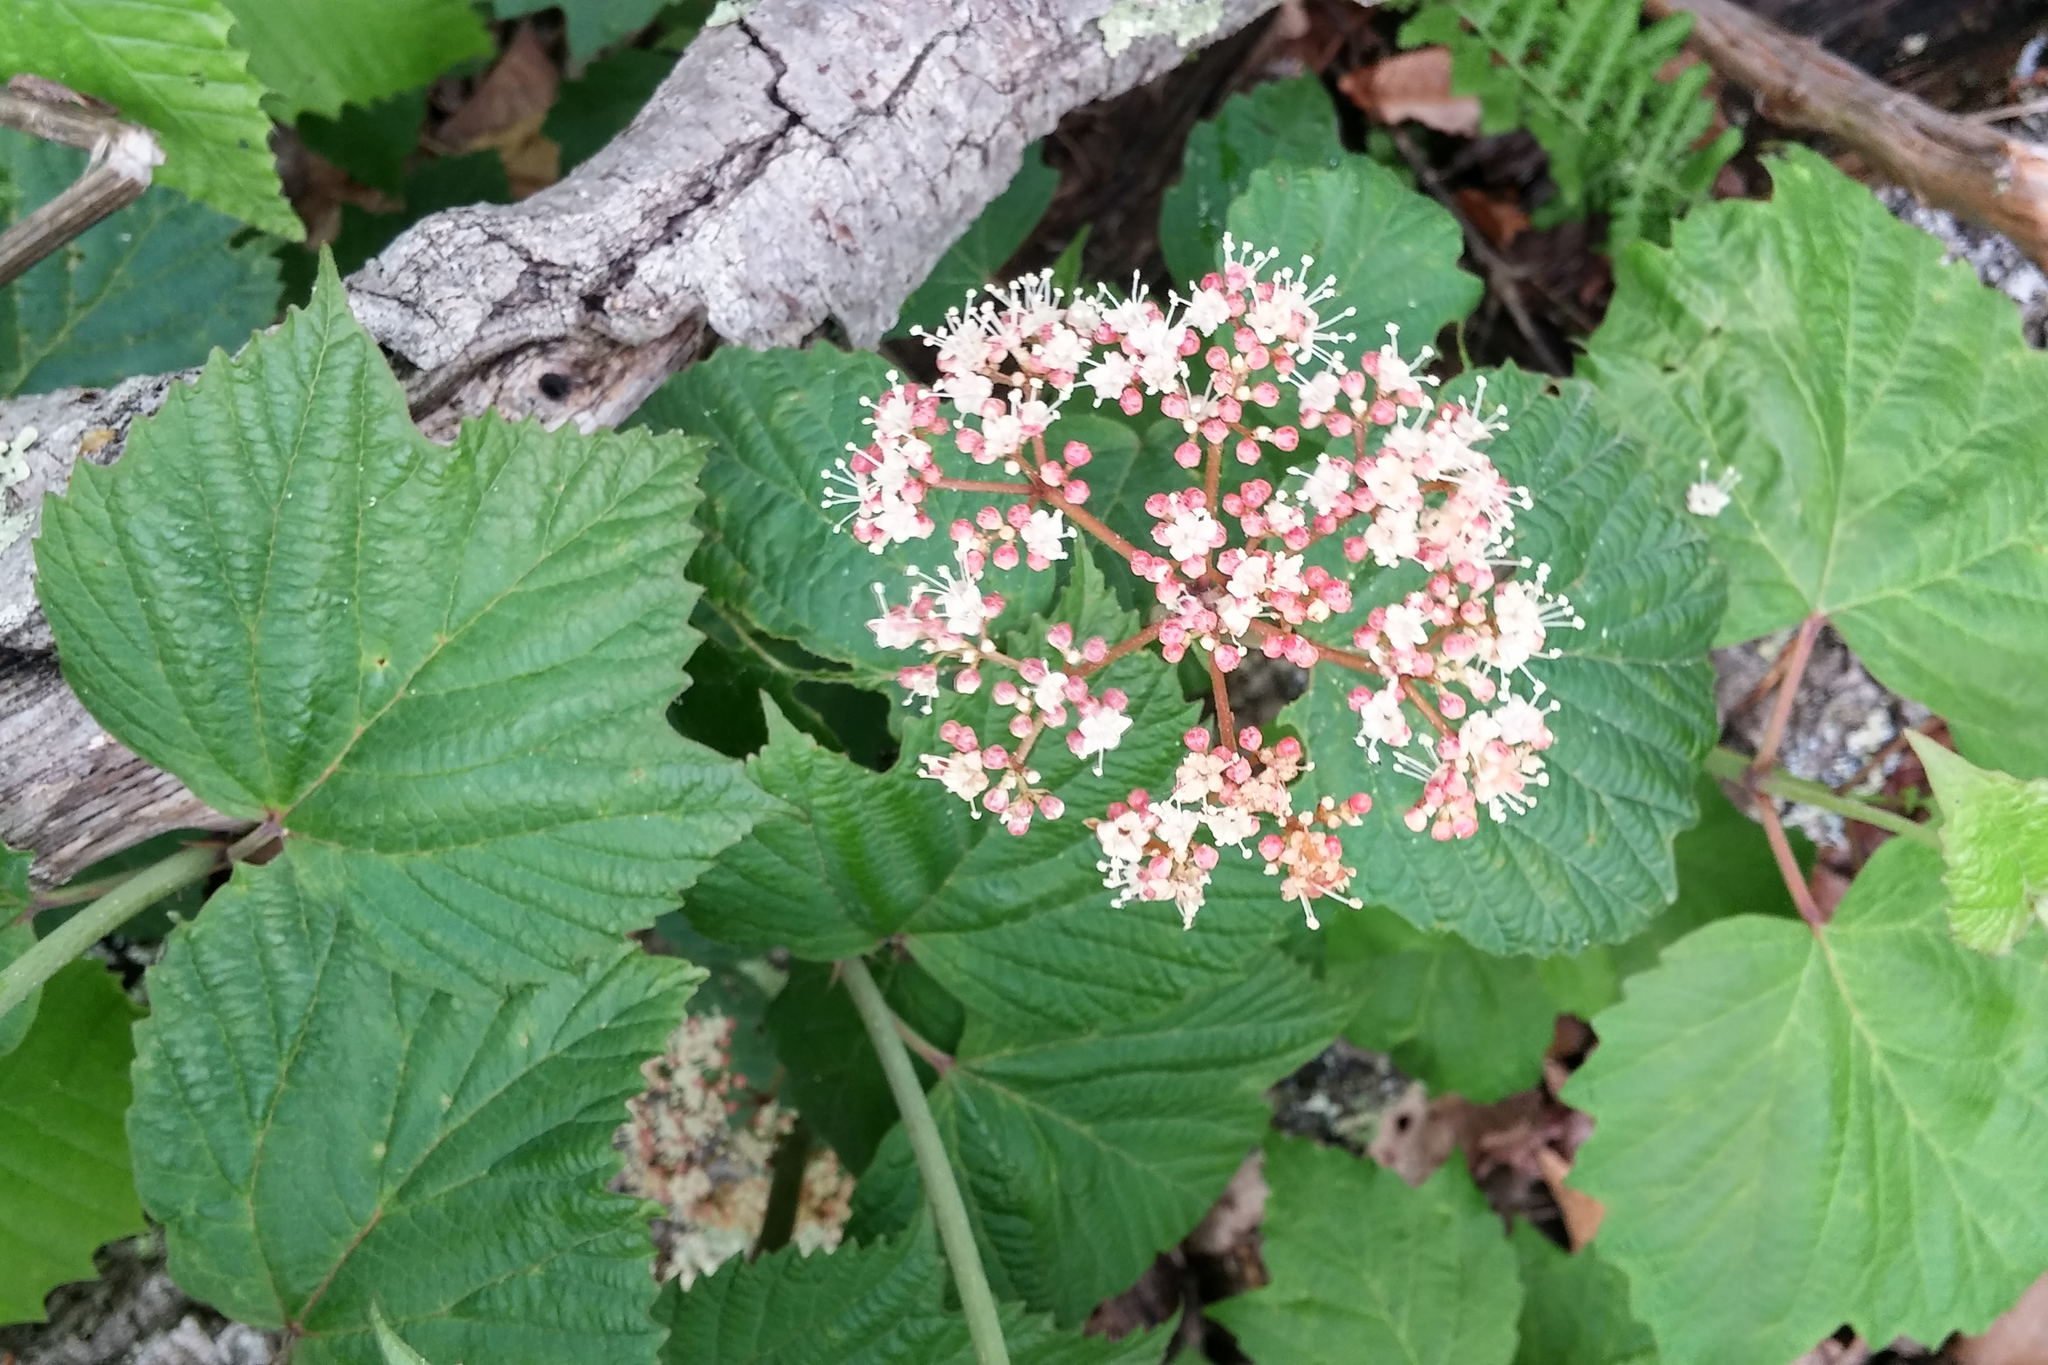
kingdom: Plantae
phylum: Tracheophyta
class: Magnoliopsida
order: Dipsacales
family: Viburnaceae
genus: Viburnum
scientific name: Viburnum acerifolium
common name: Dockmackie
